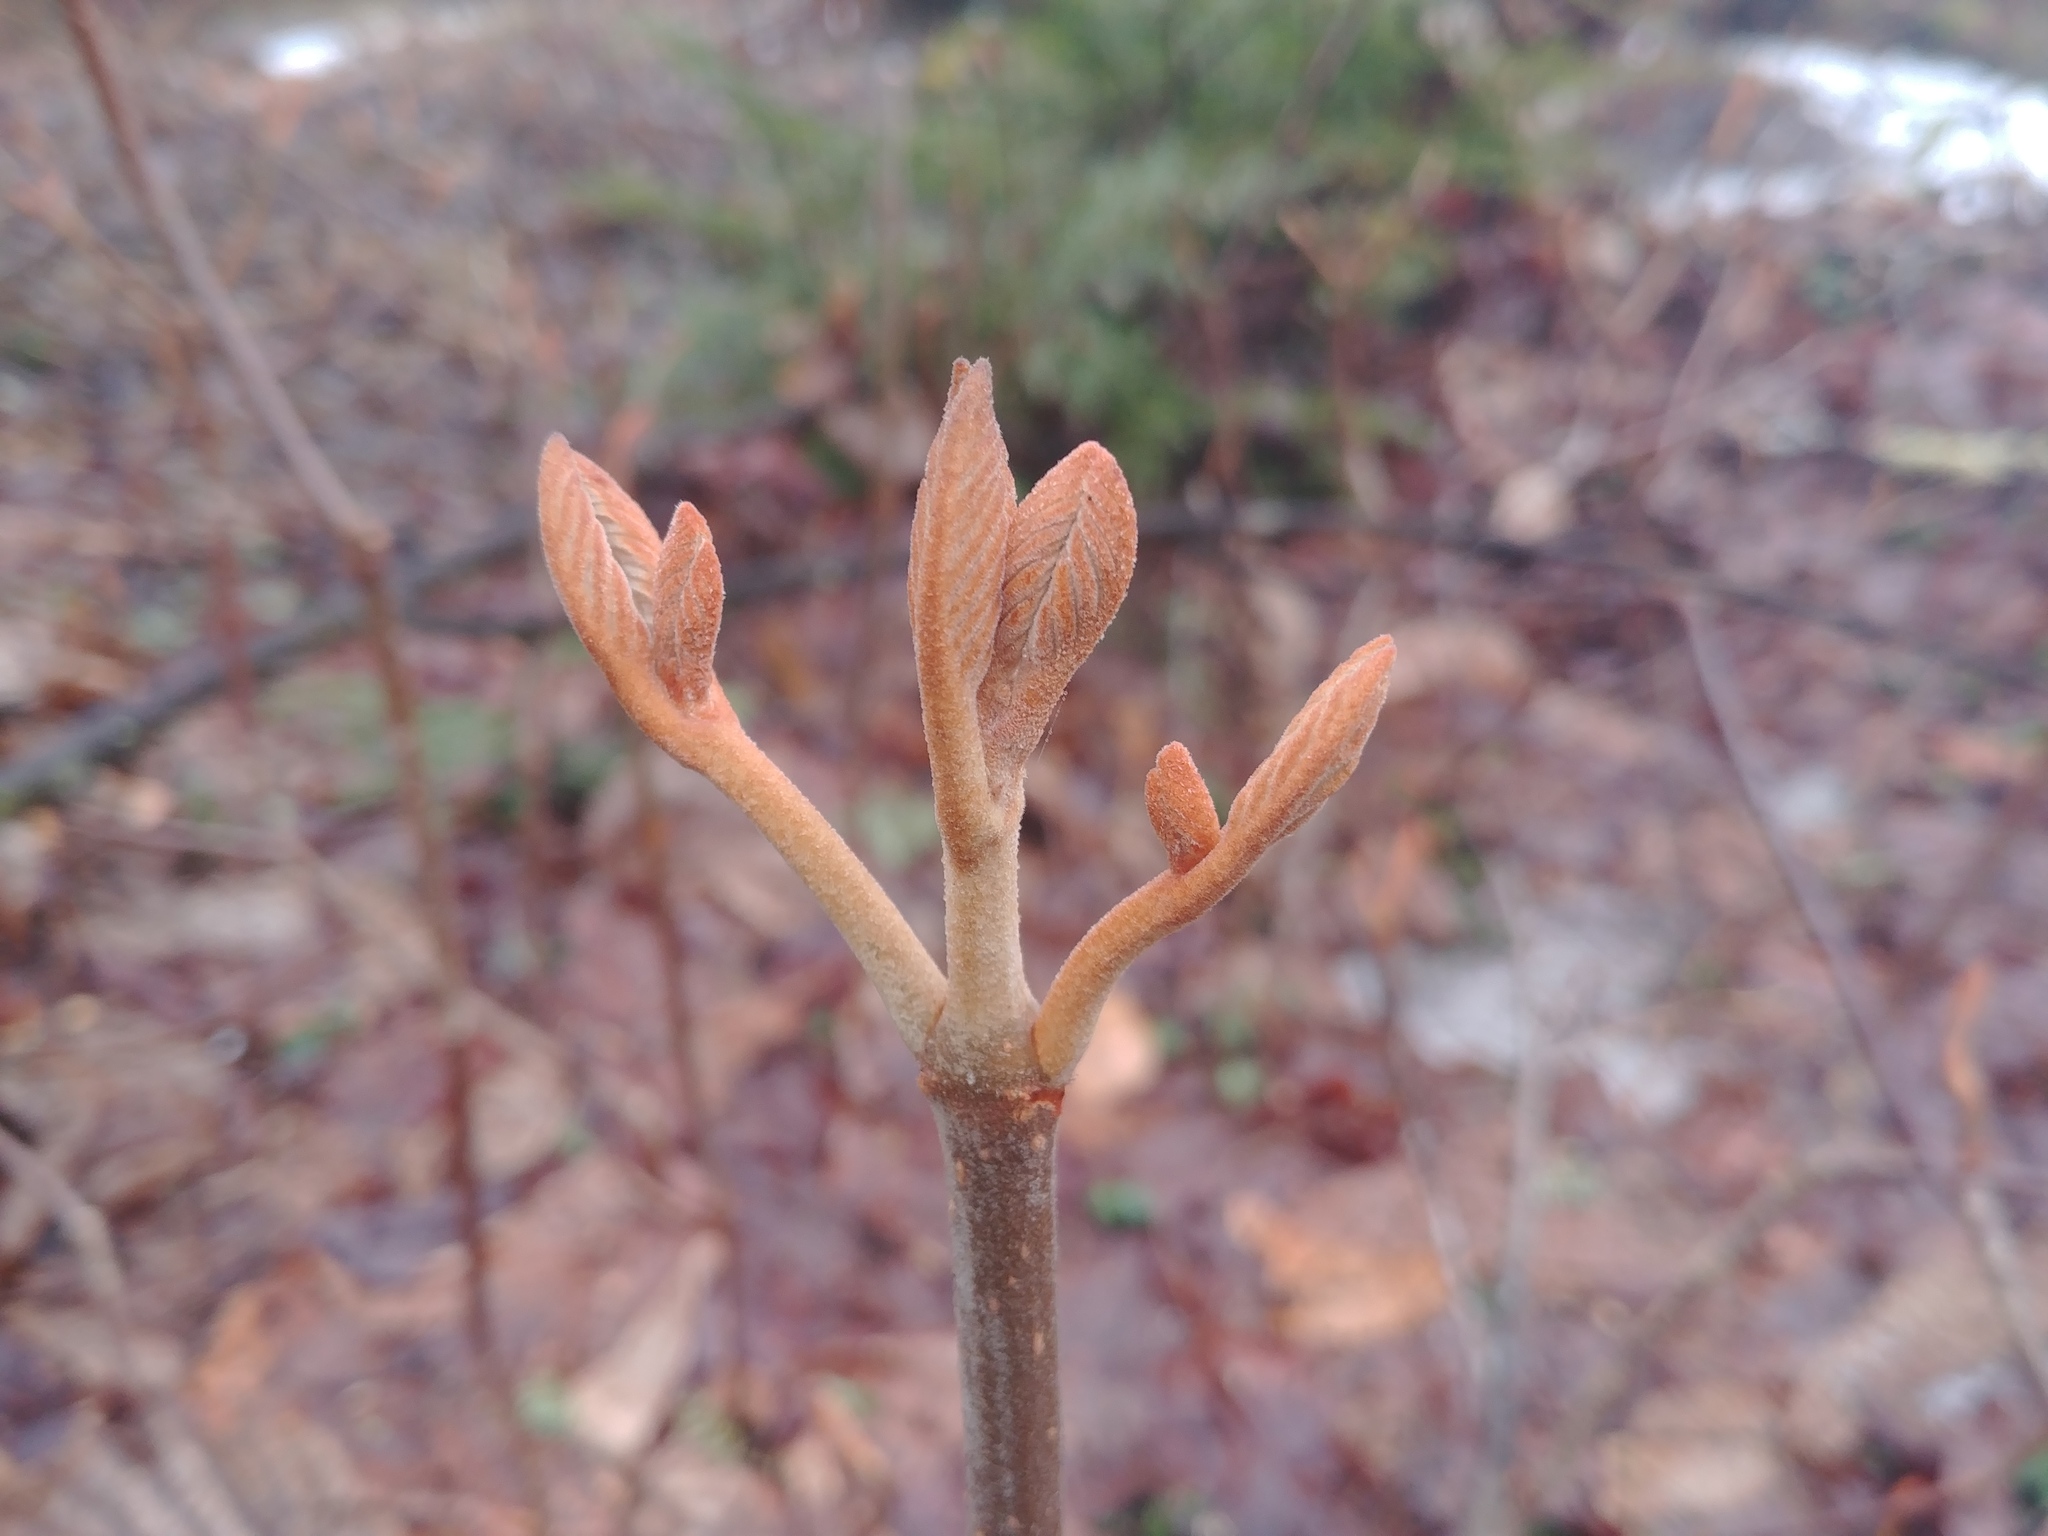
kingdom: Plantae
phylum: Tracheophyta
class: Magnoliopsida
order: Dipsacales
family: Viburnaceae
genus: Viburnum
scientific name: Viburnum lantanoides
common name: Hobblebush
